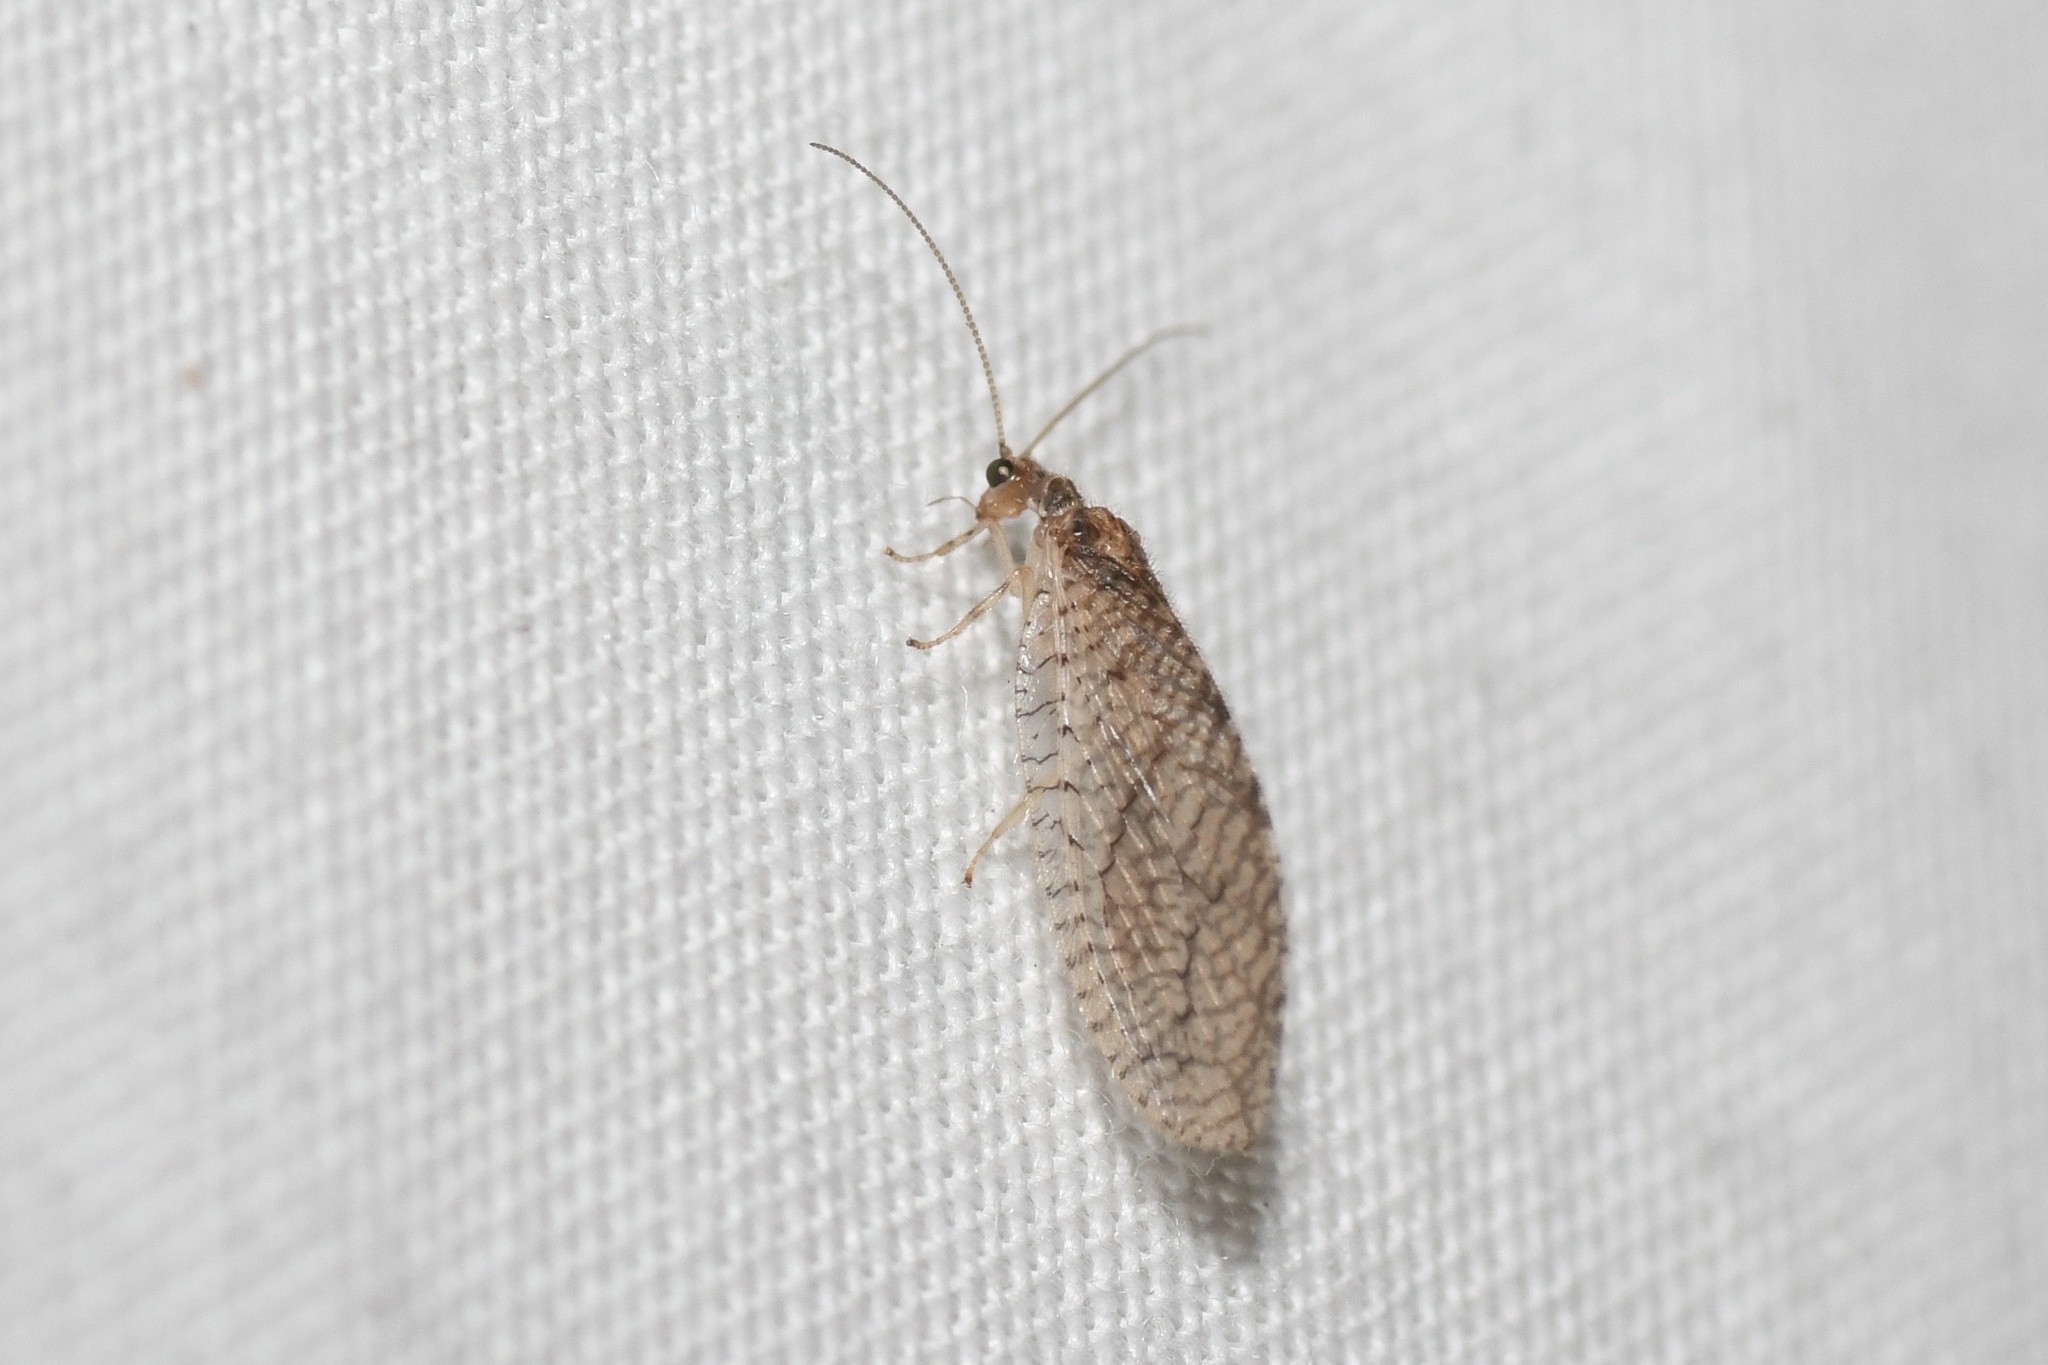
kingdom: Animalia
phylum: Arthropoda
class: Insecta
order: Neuroptera
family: Hemerobiidae
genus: Micromus
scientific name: Micromus posticus
